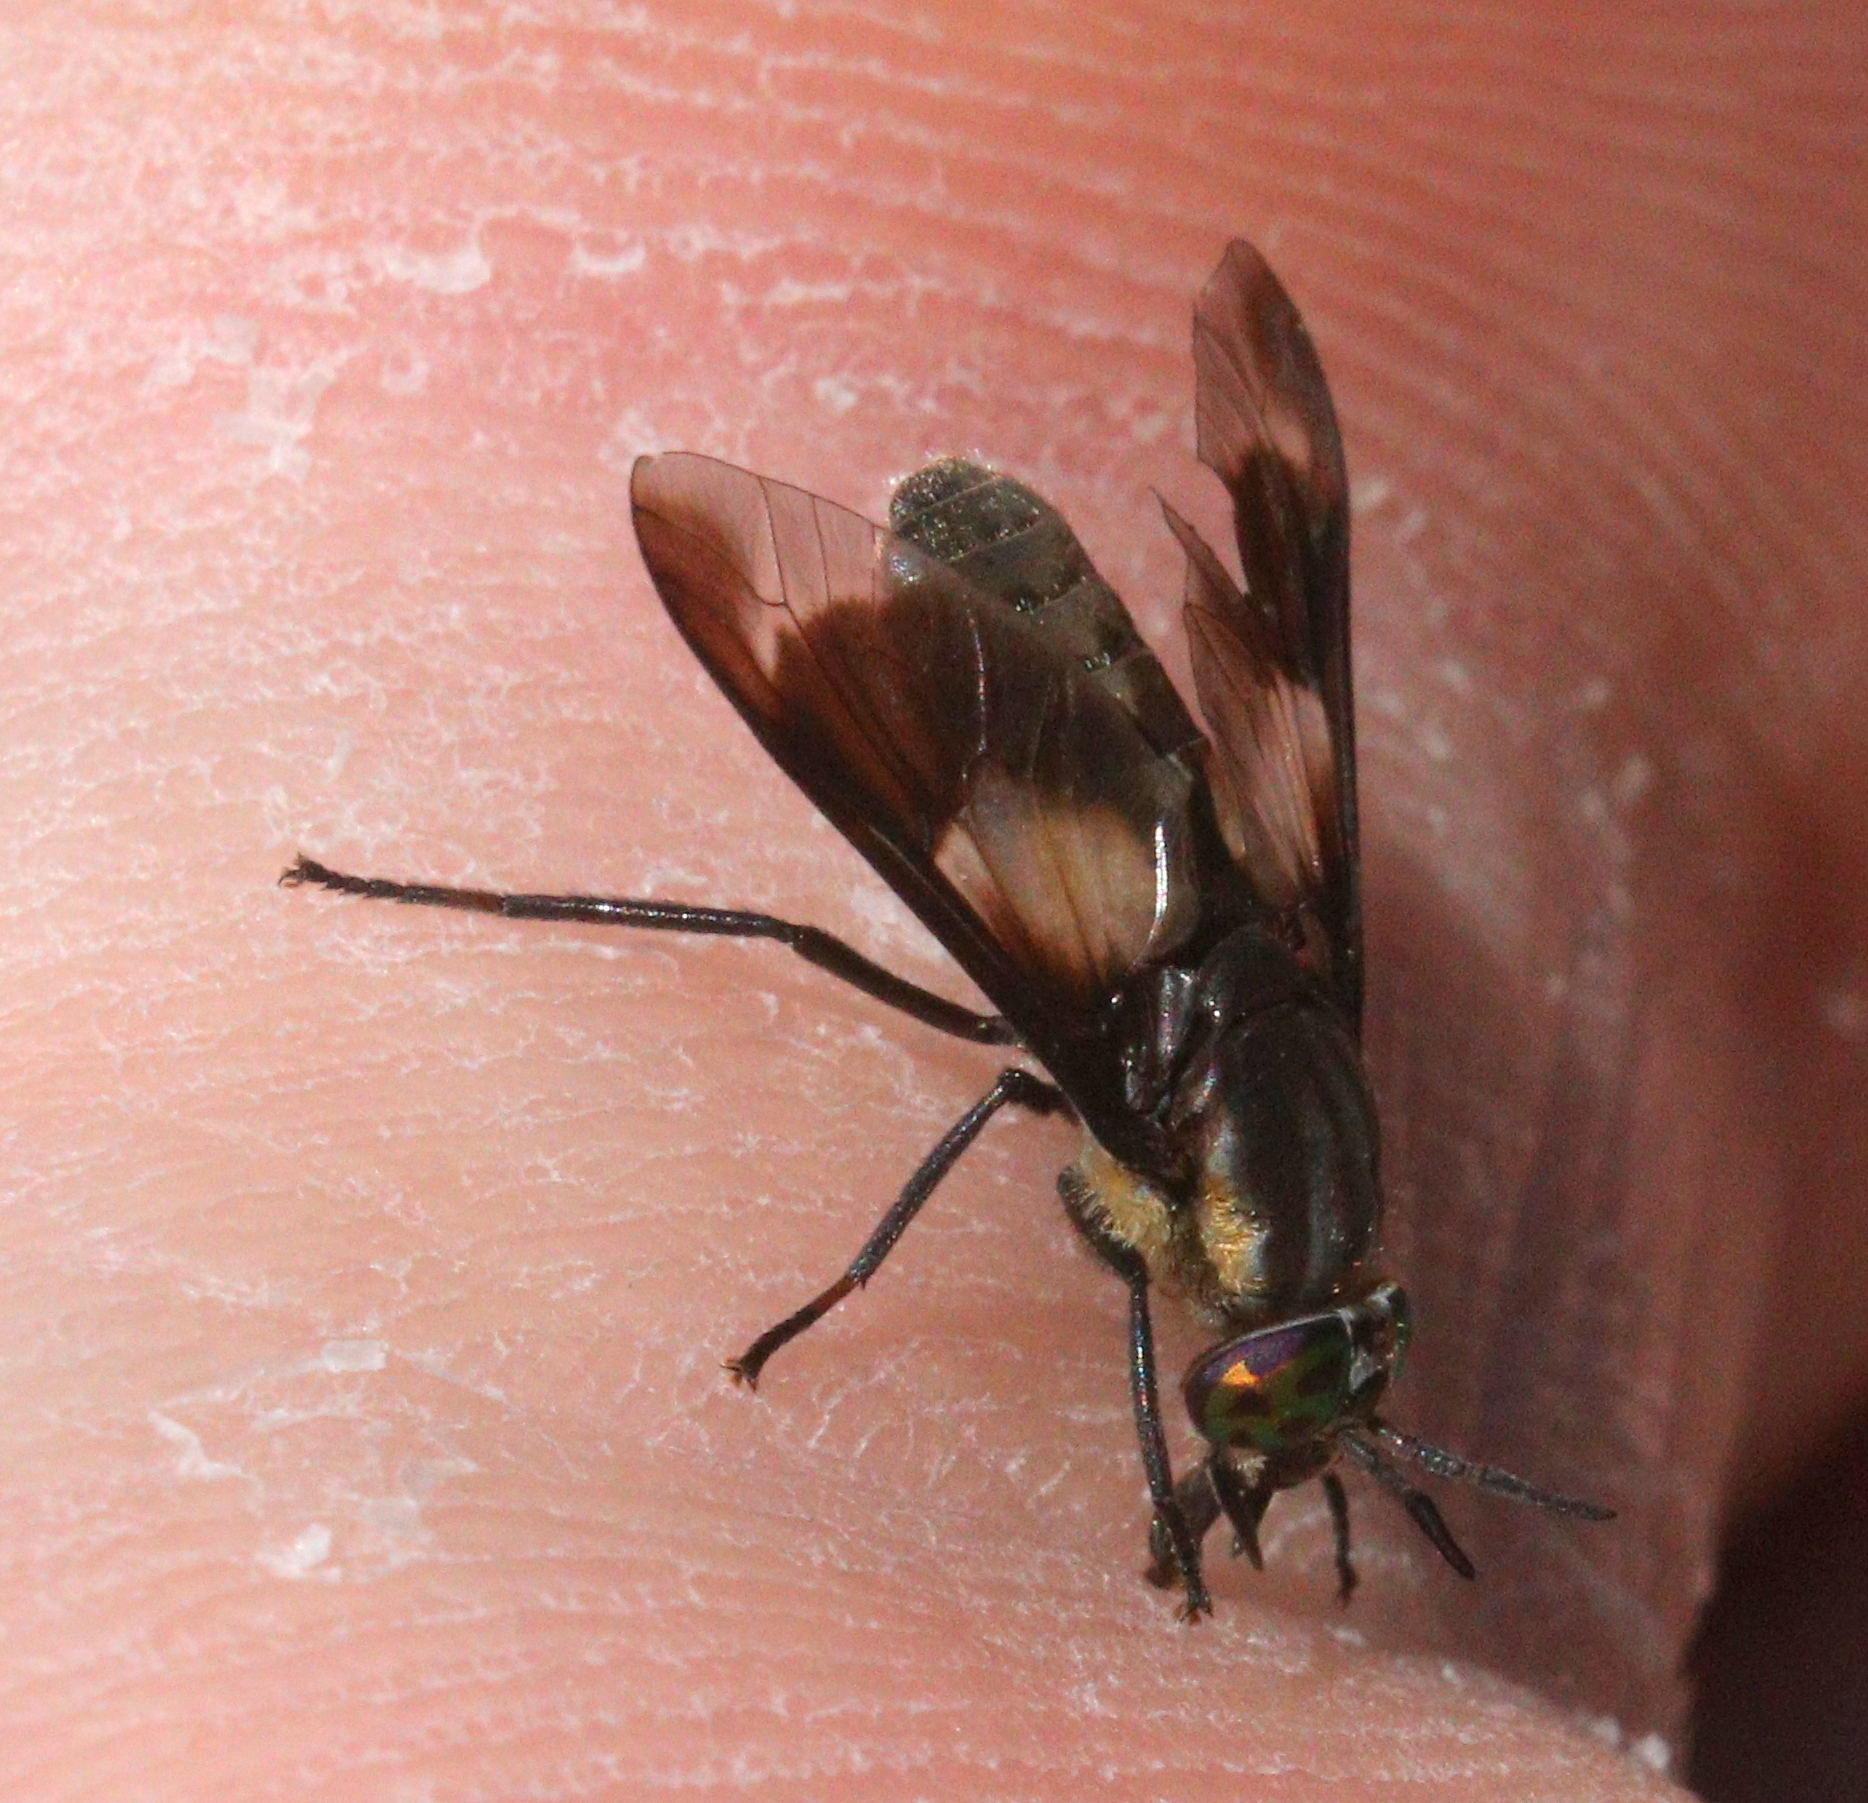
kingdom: Animalia
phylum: Arthropoda
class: Insecta
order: Diptera
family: Tabanidae
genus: Chrysops
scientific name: Chrysops caecutiens
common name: Splayed deerfly
